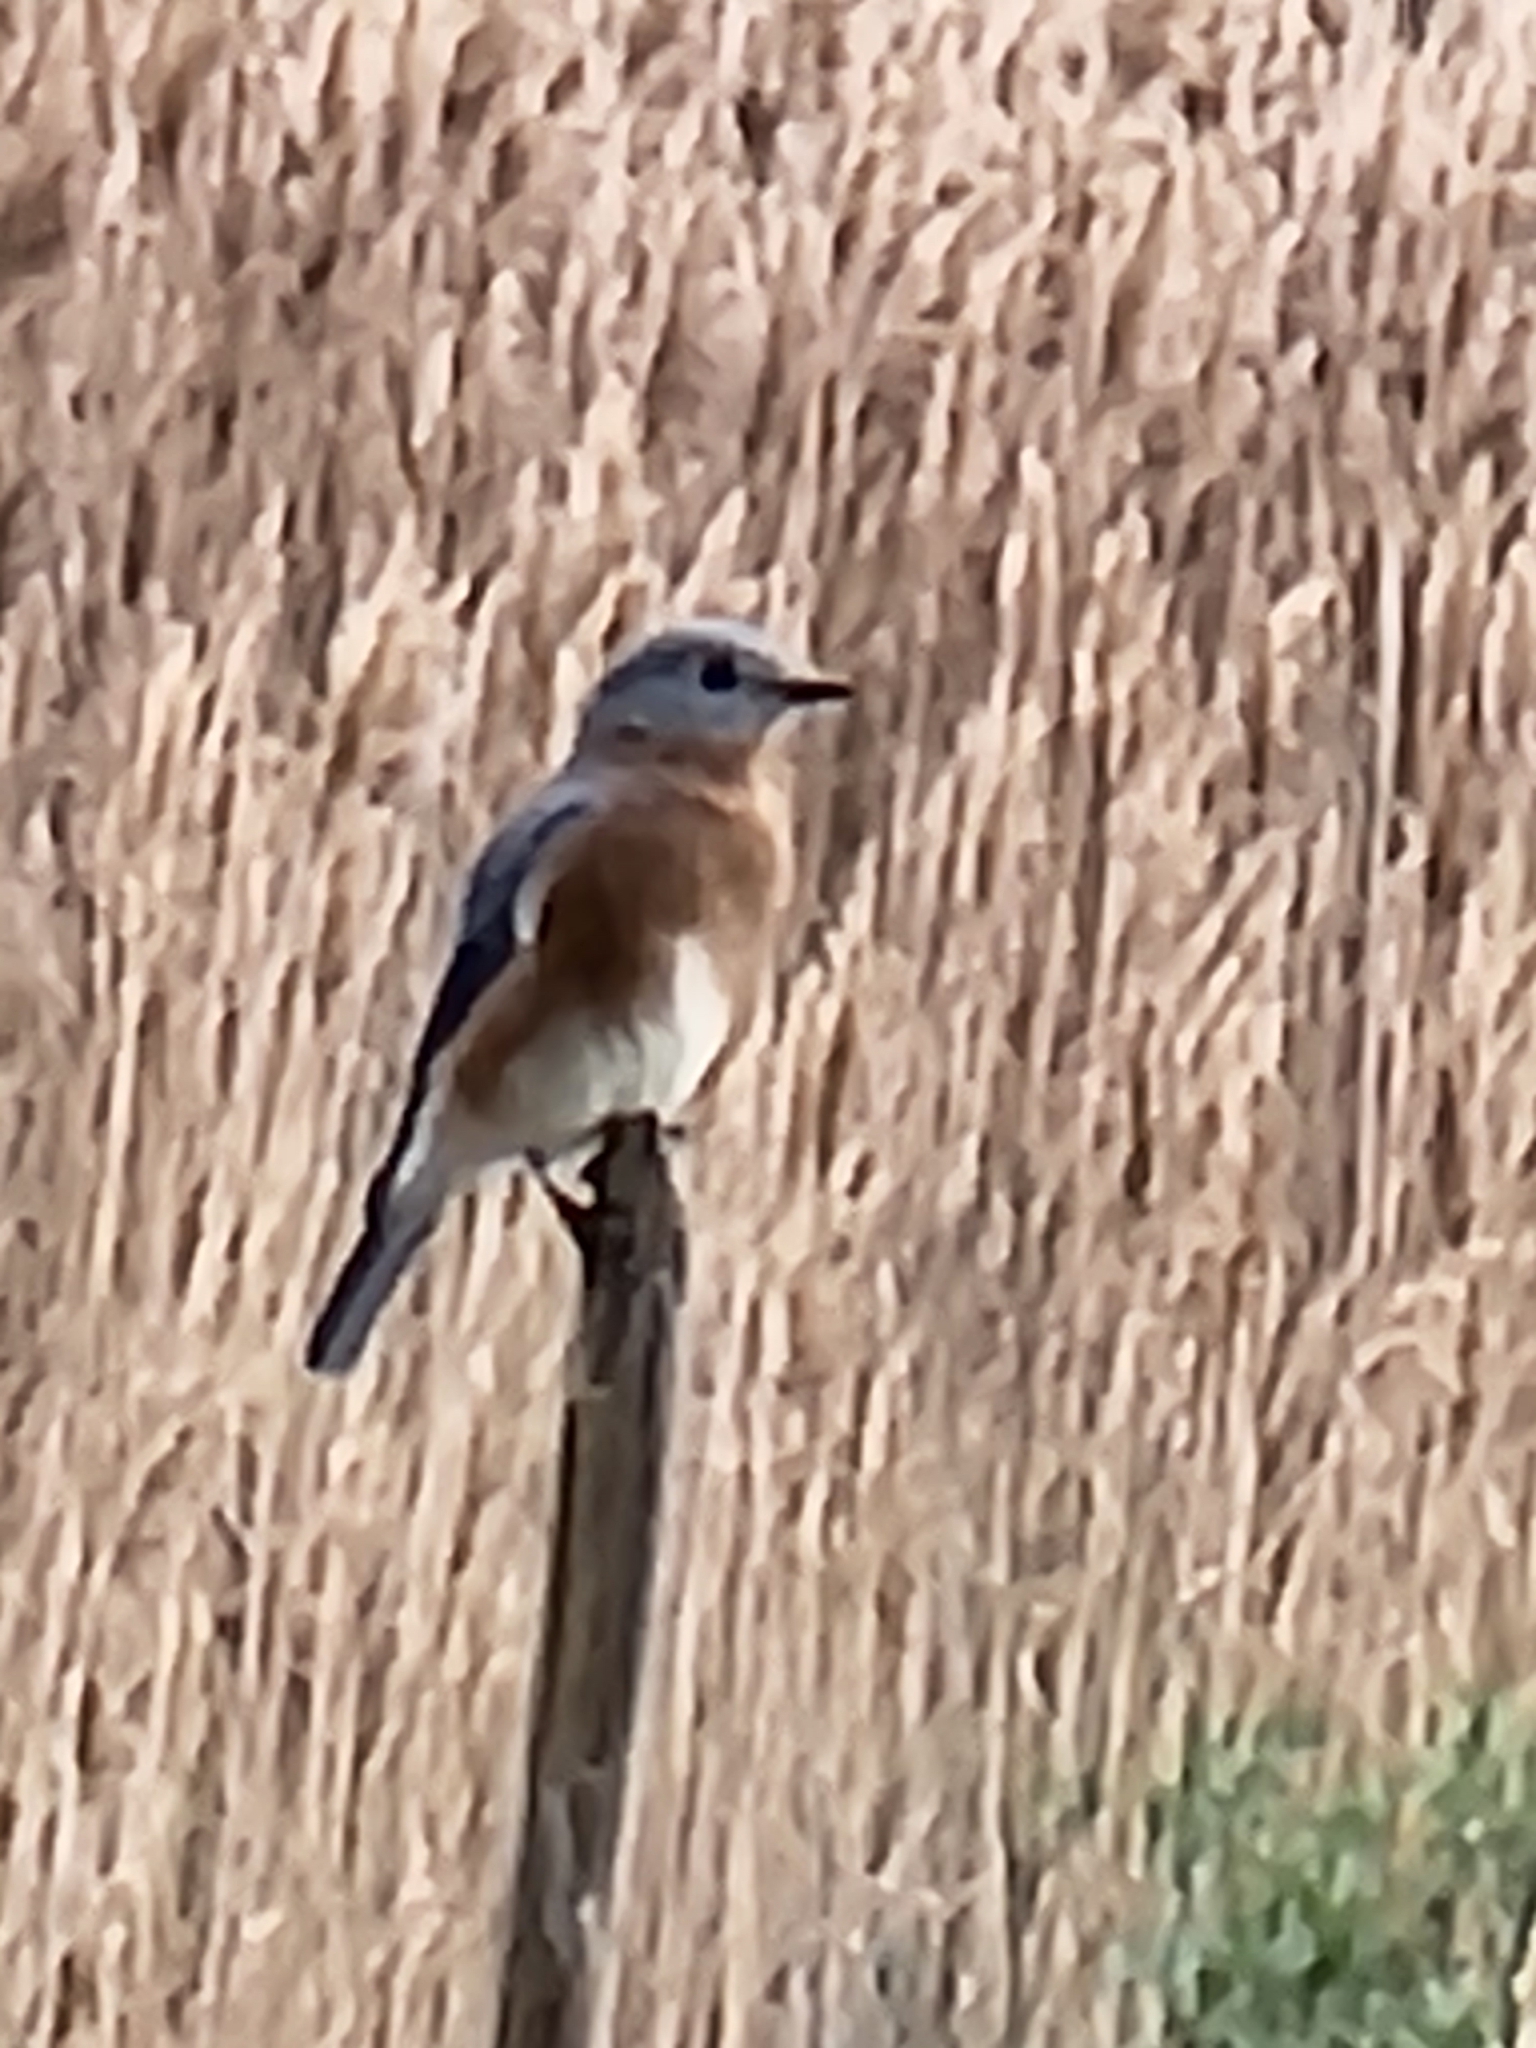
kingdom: Animalia
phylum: Chordata
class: Aves
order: Passeriformes
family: Turdidae
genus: Sialia
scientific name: Sialia sialis
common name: Eastern bluebird
